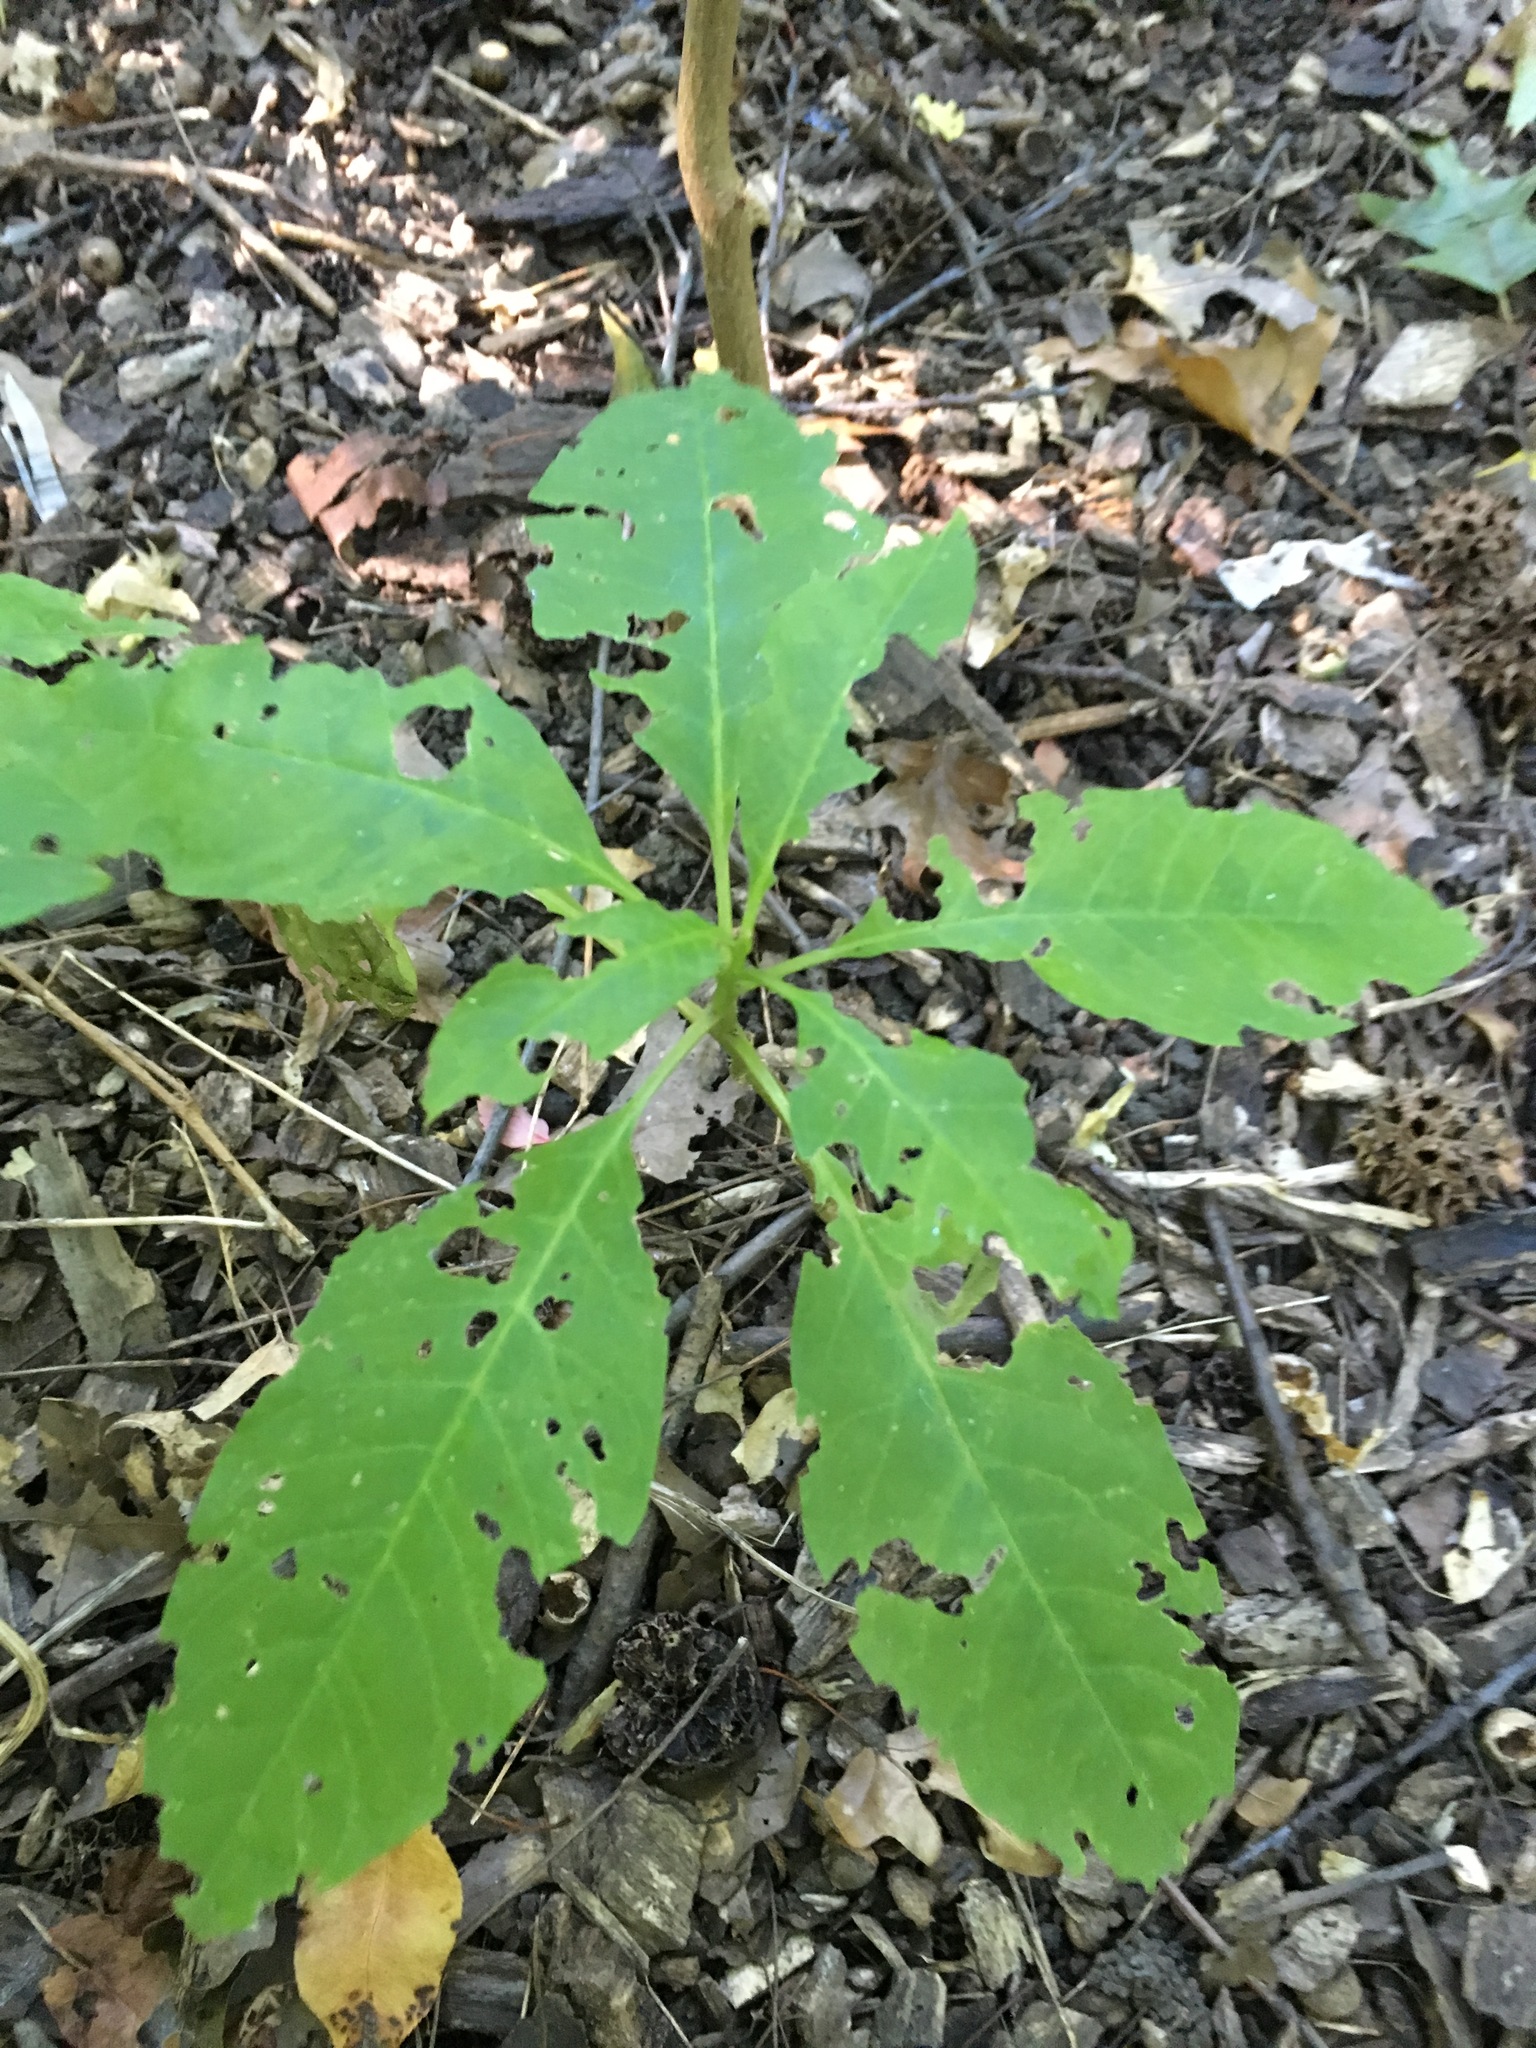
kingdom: Plantae
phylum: Tracheophyta
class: Magnoliopsida
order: Caryophyllales
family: Phytolaccaceae
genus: Phytolacca
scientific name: Phytolacca americana
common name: American pokeweed
